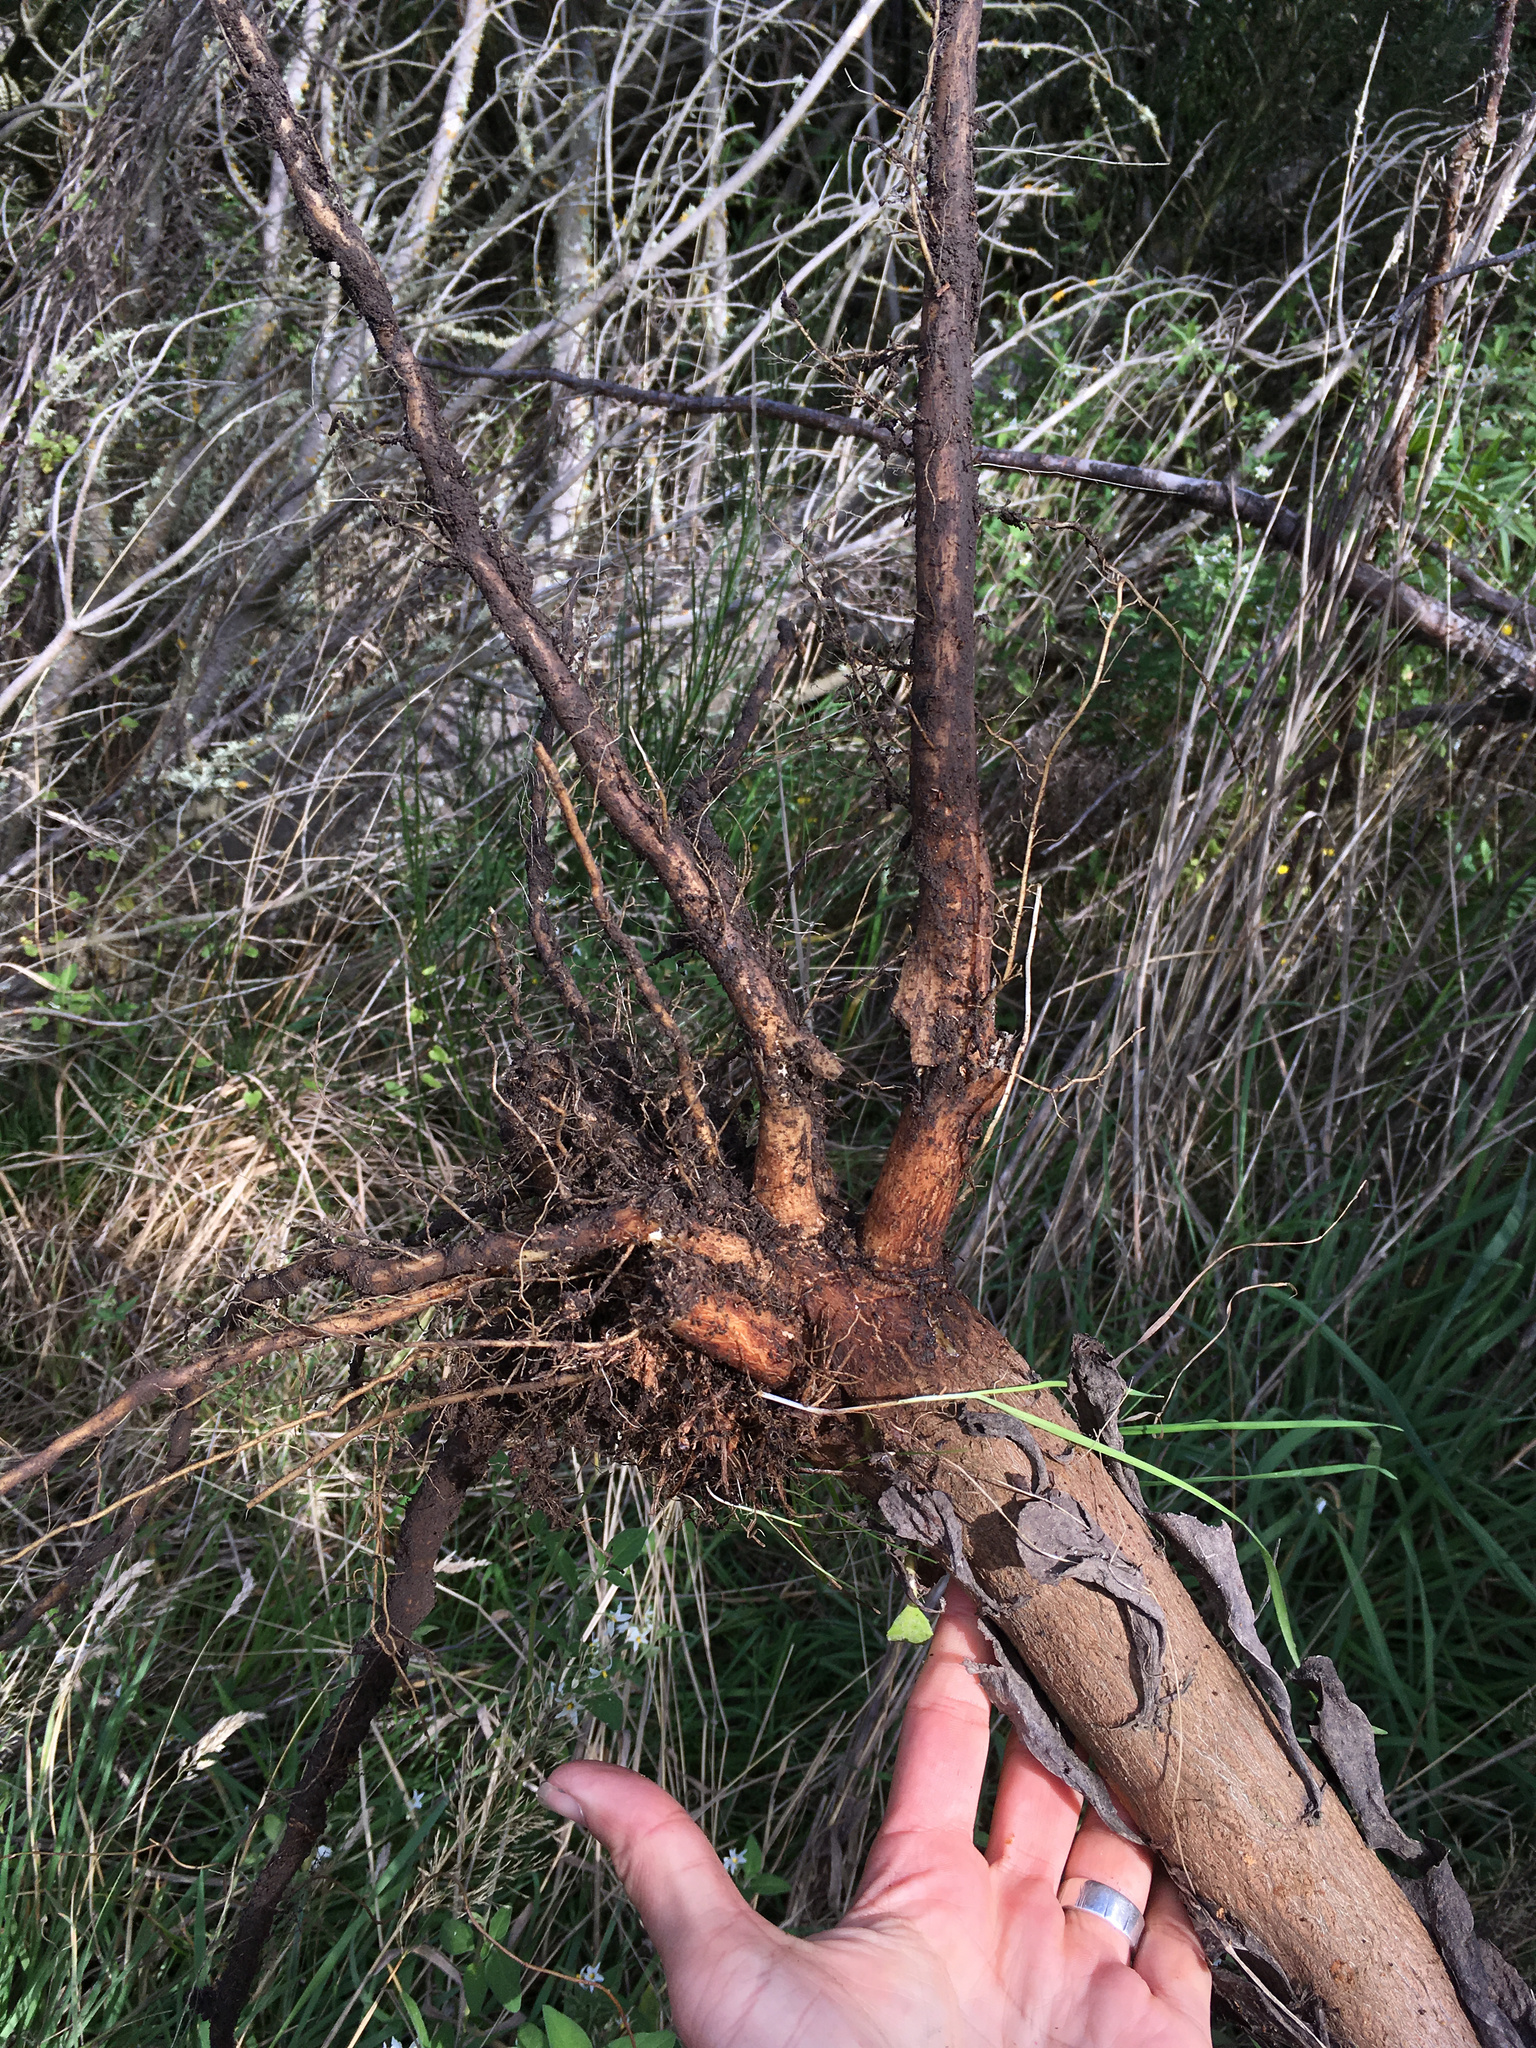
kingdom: Plantae
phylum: Tracheophyta
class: Magnoliopsida
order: Asterales
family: Asteraceae
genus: Osteospermum
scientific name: Osteospermum moniliferum
